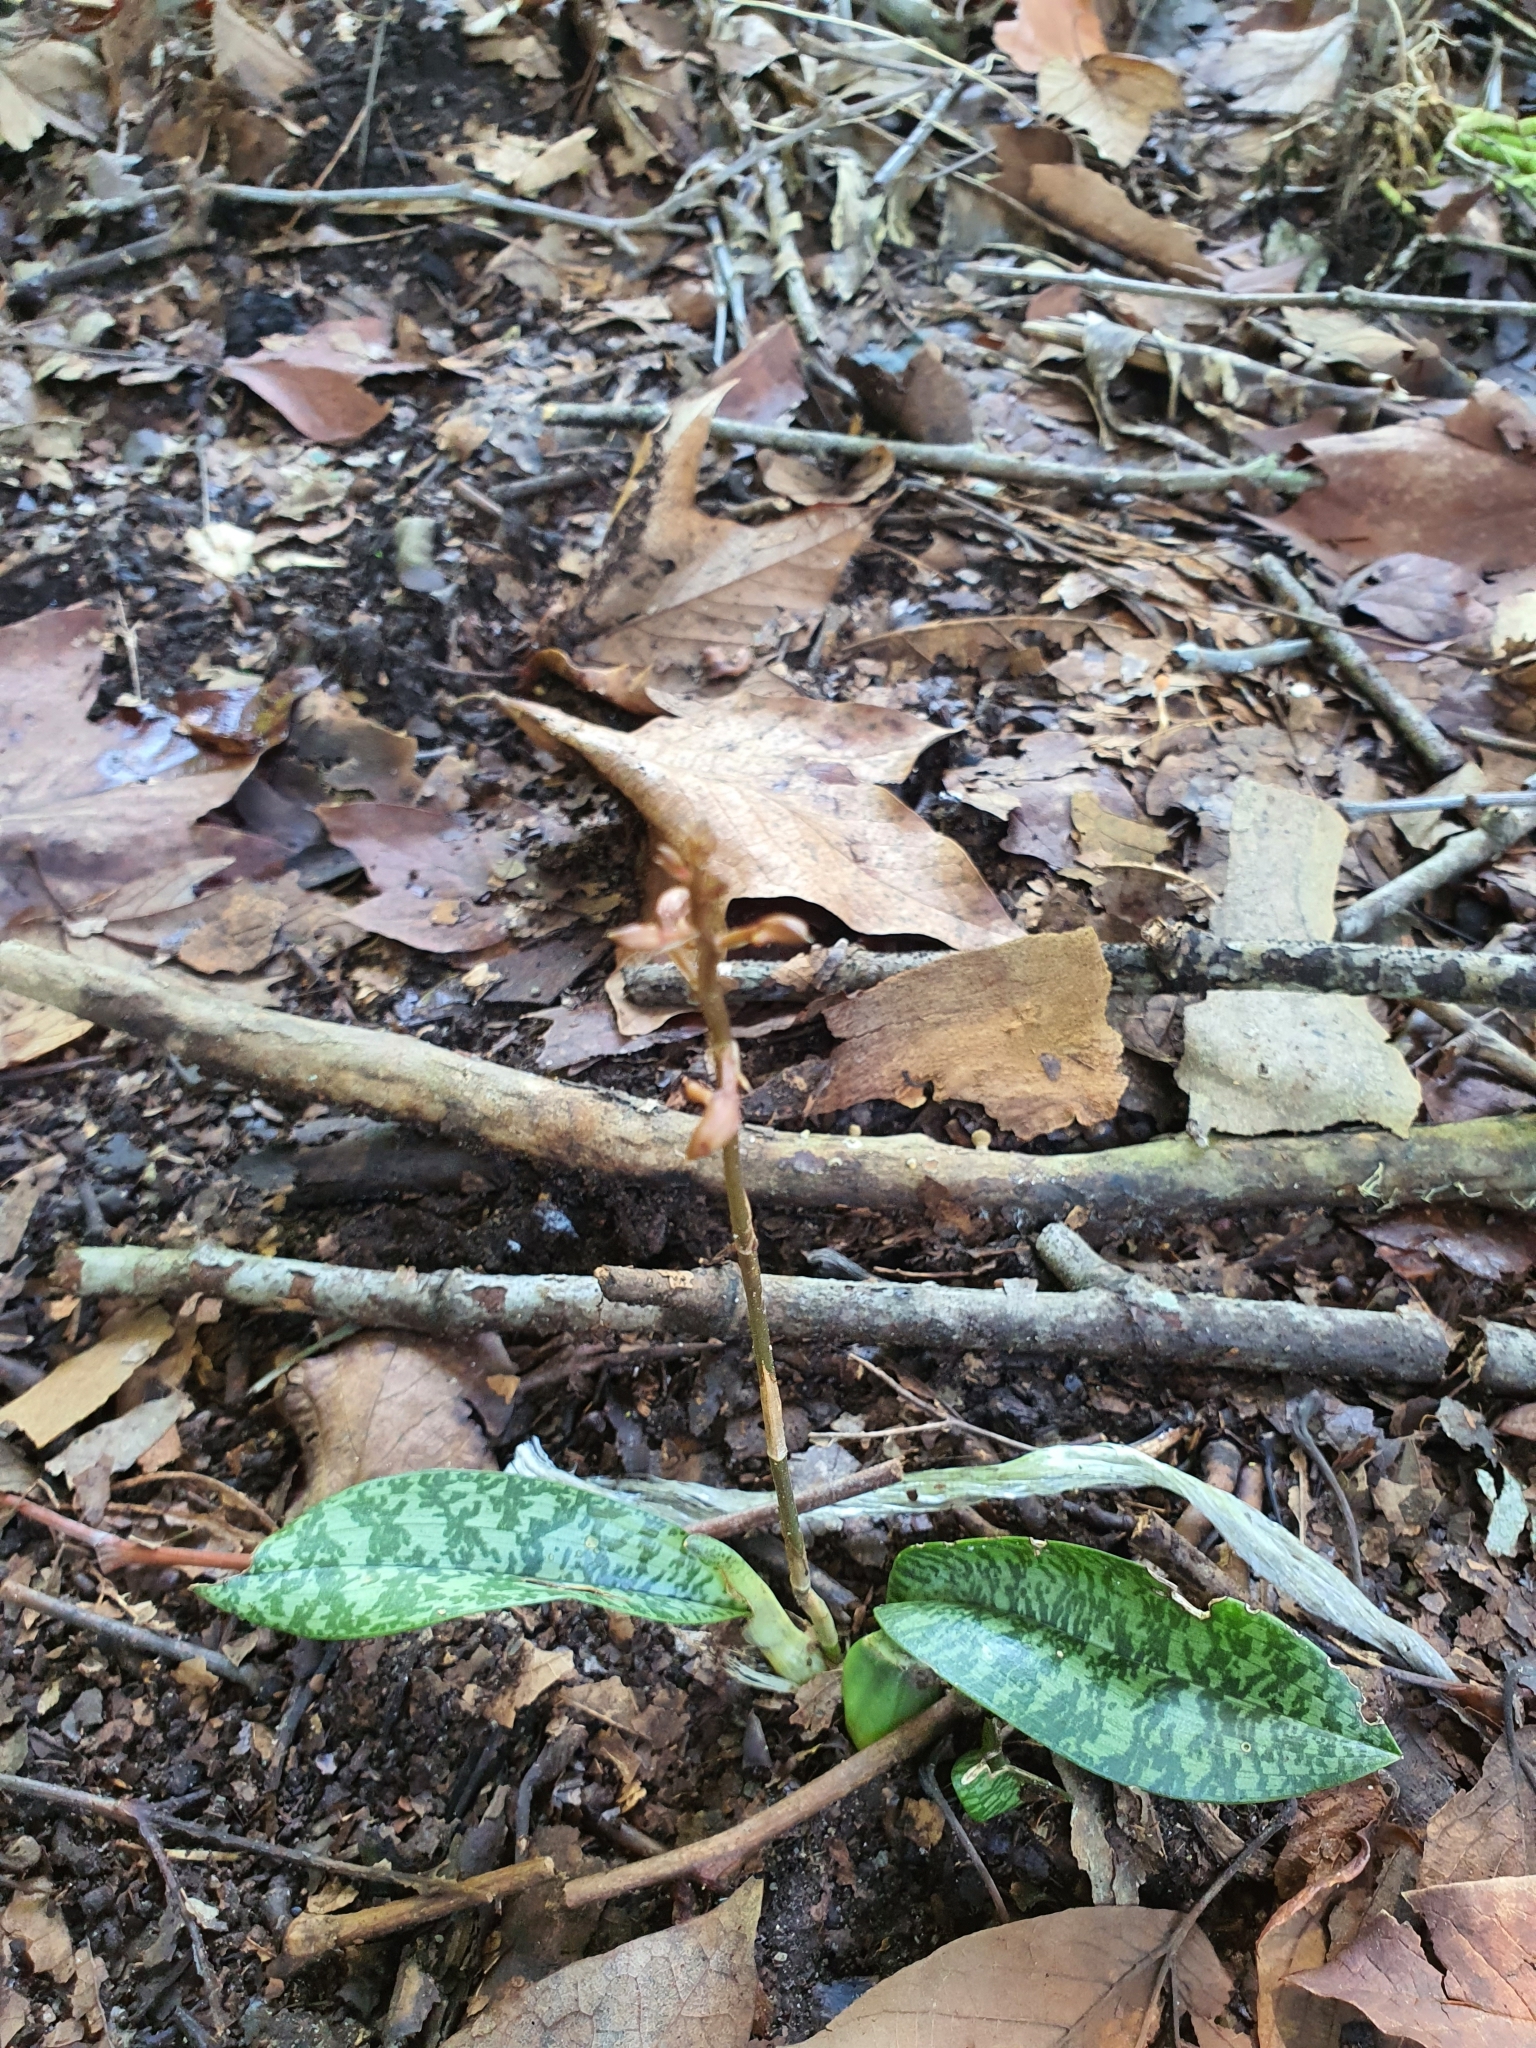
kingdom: Plantae
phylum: Tracheophyta
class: Liliopsida
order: Asparagales
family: Orchidaceae
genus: Eulophia
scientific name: Eulophia maculata
